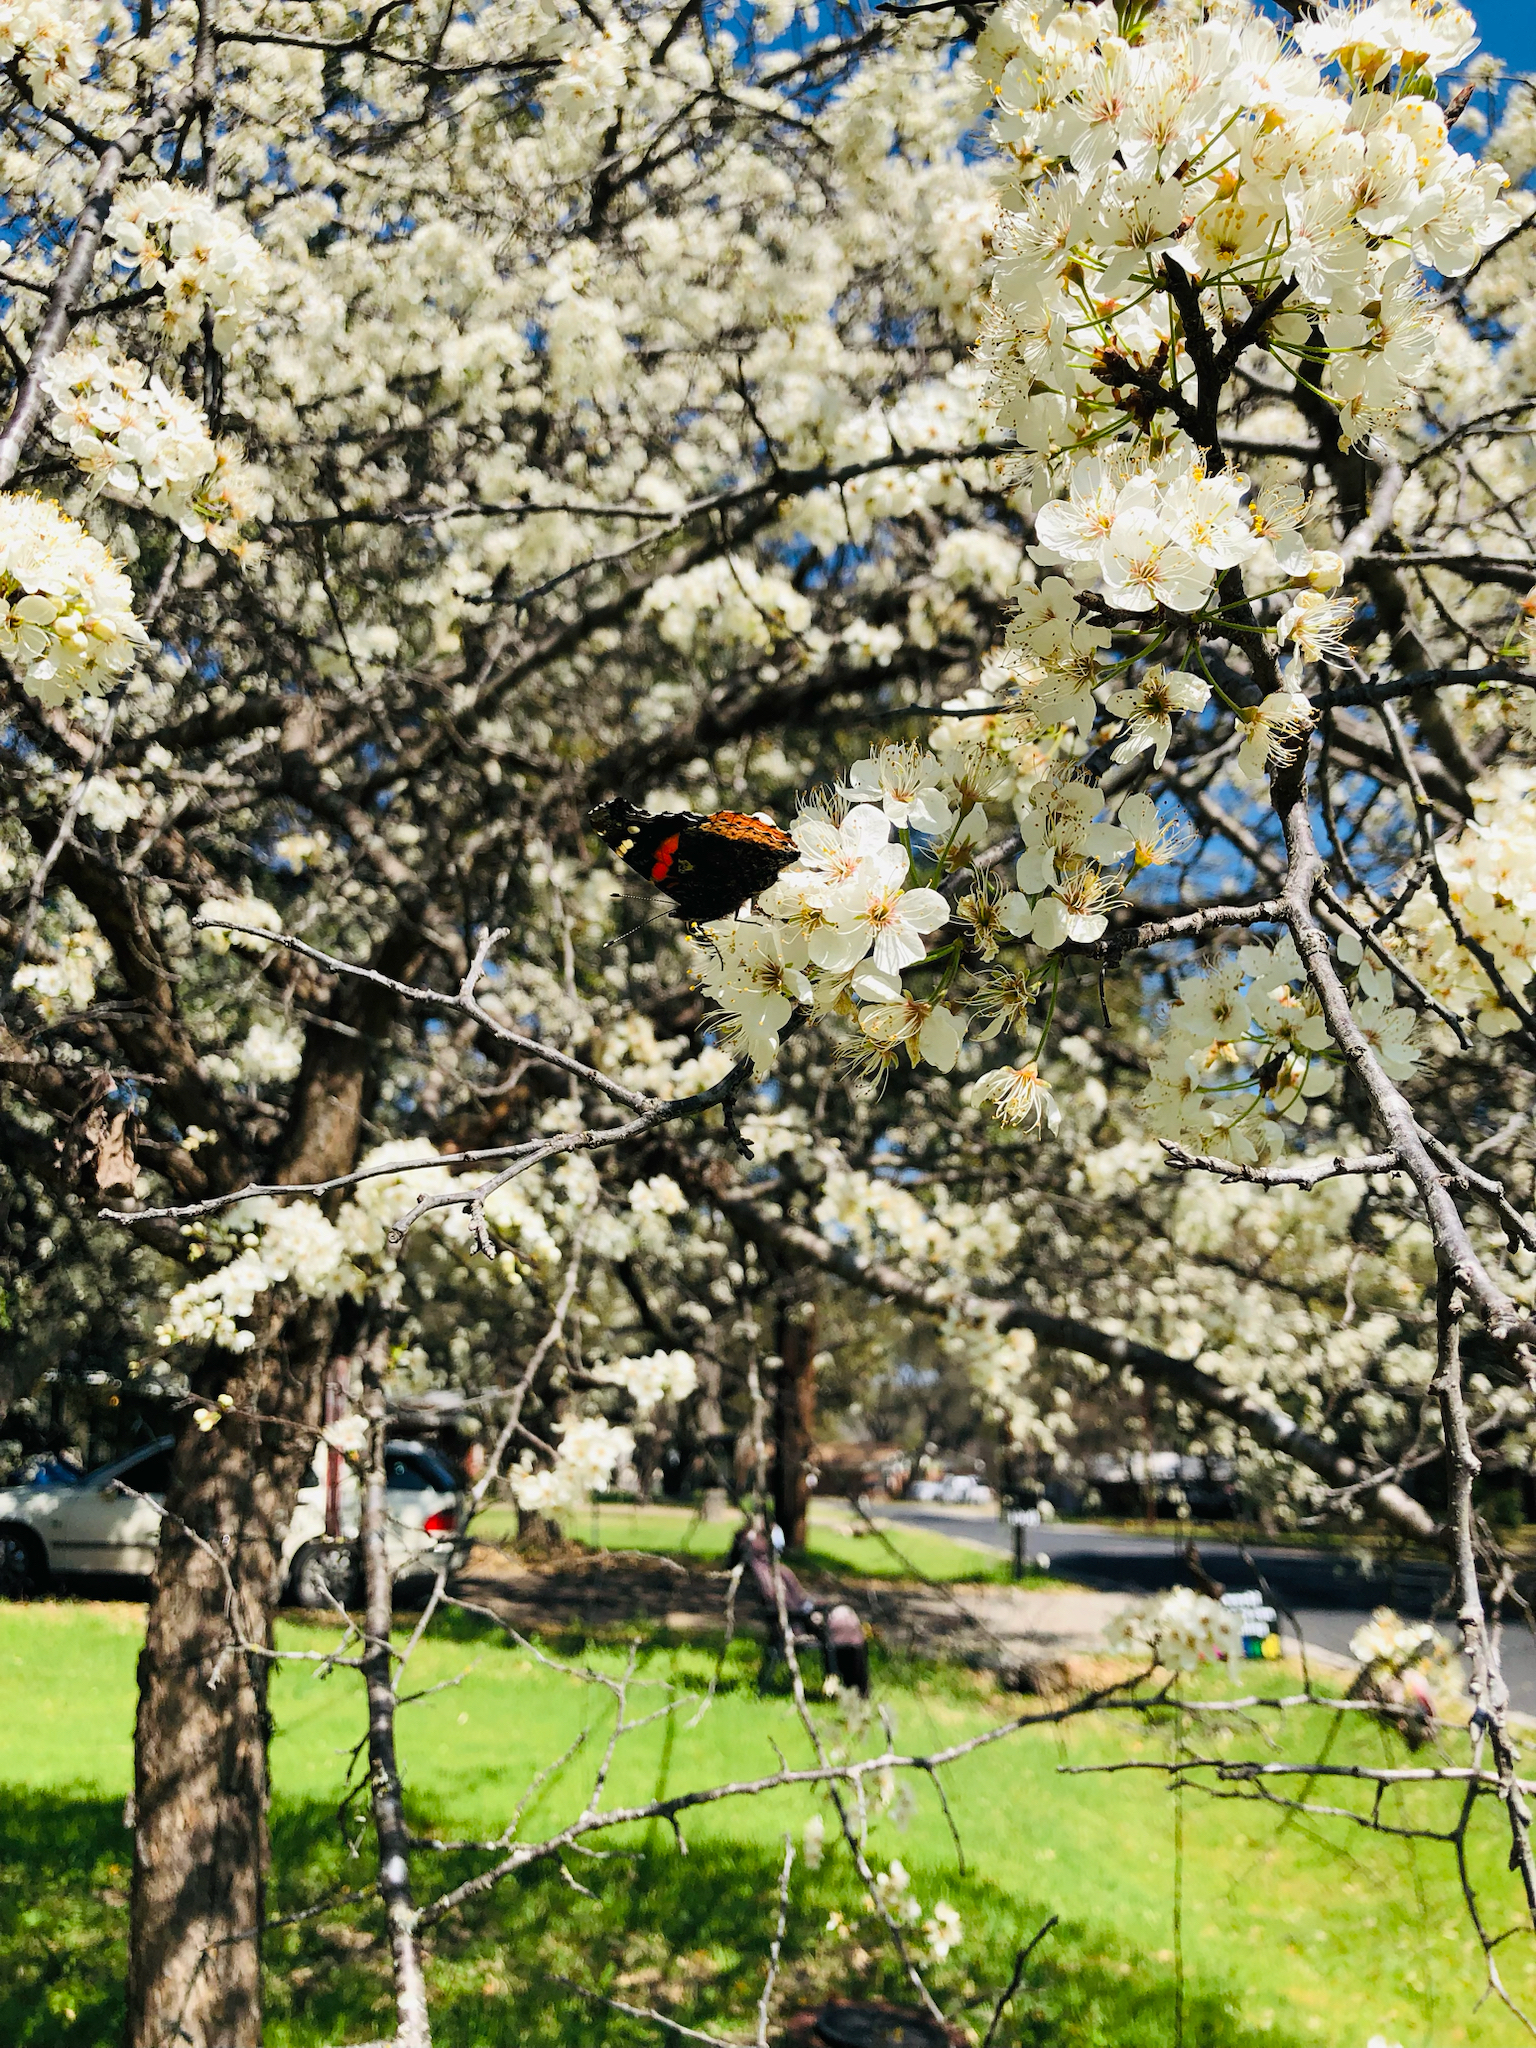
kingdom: Animalia
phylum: Arthropoda
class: Insecta
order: Lepidoptera
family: Nymphalidae
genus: Vanessa
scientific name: Vanessa atalanta
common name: Red admiral
